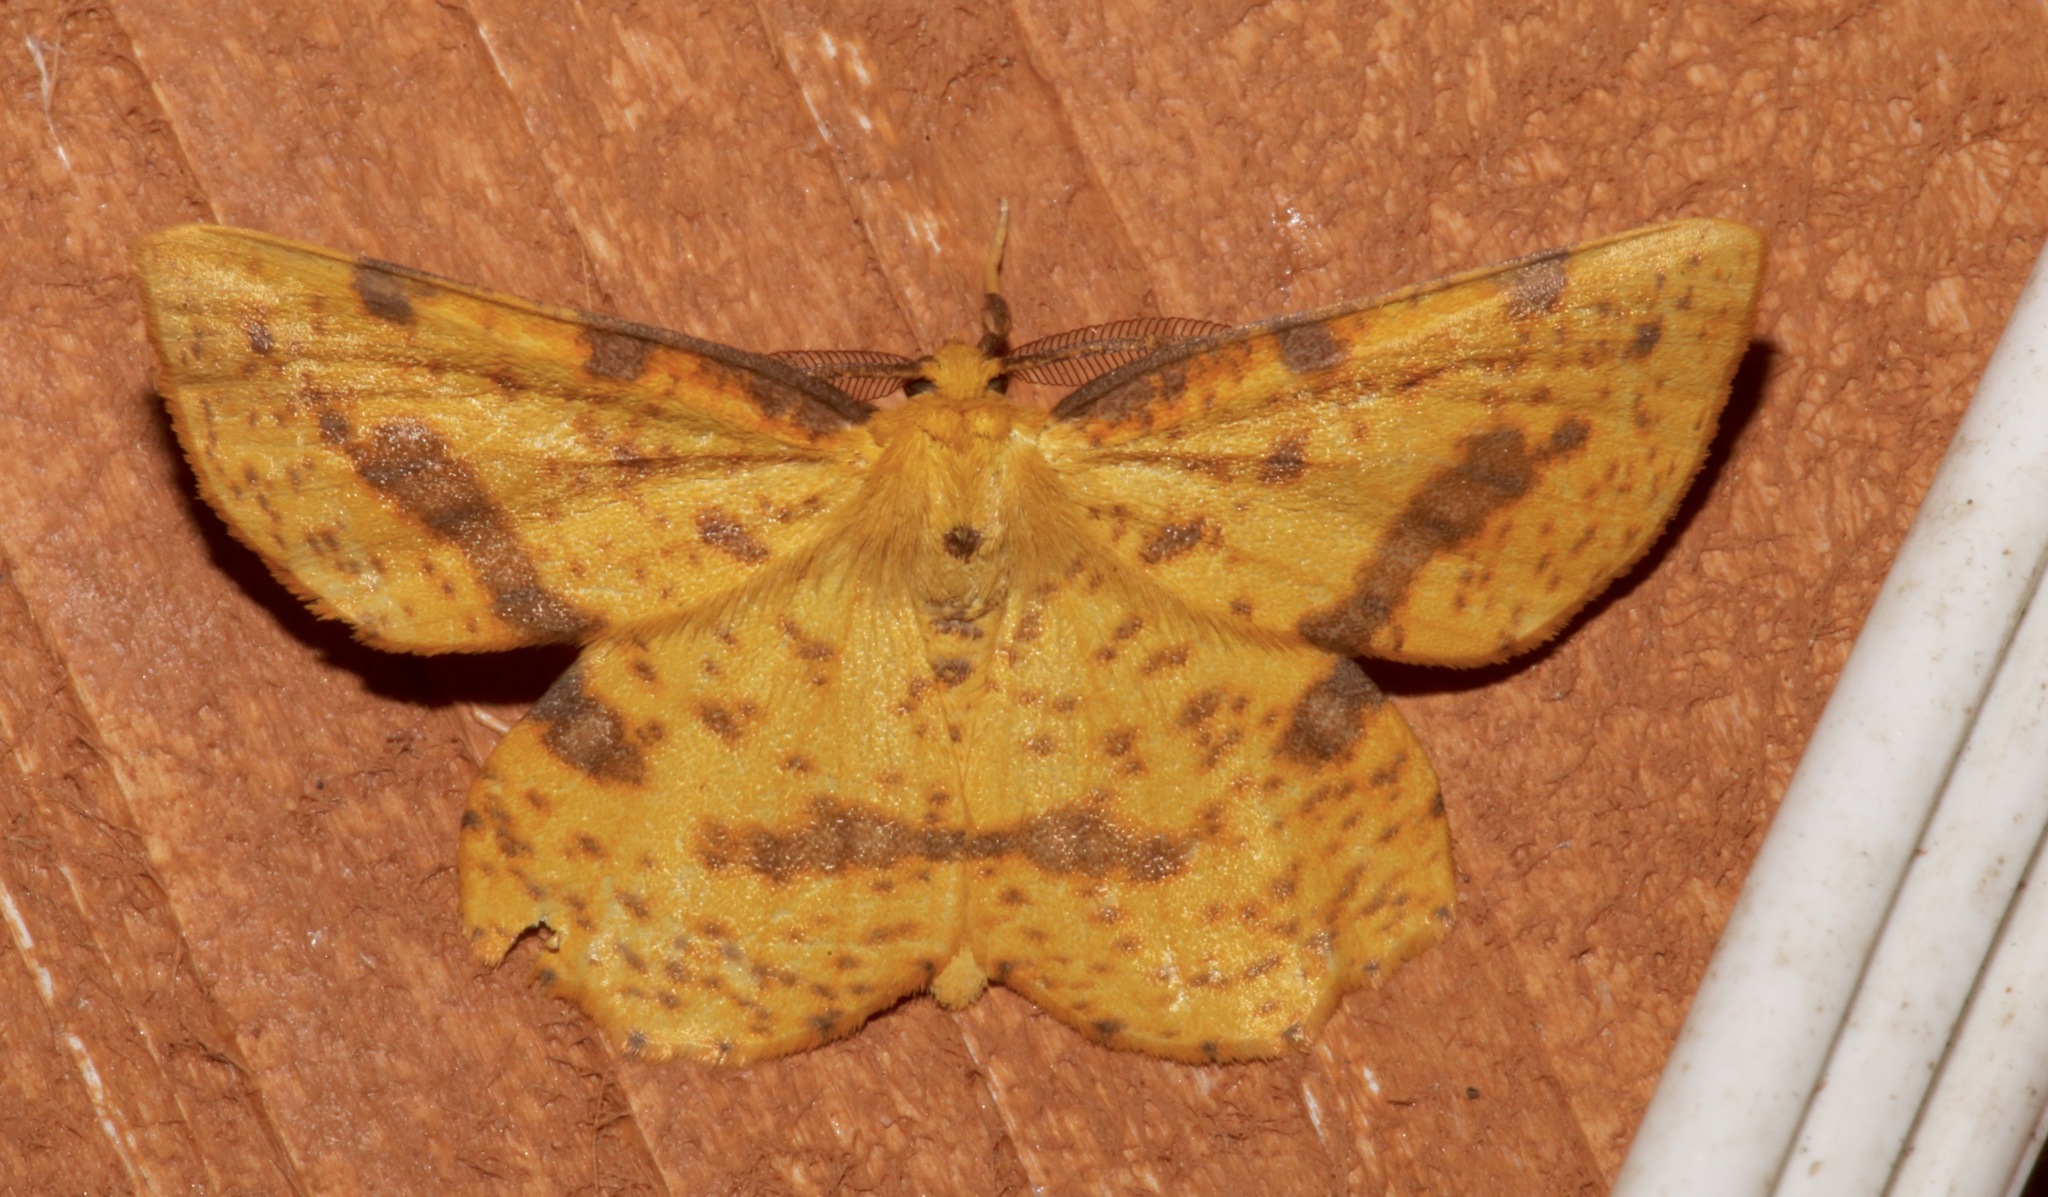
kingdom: Animalia
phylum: Arthropoda
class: Insecta
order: Lepidoptera
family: Geometridae
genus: Xanthotype
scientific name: Xanthotype
